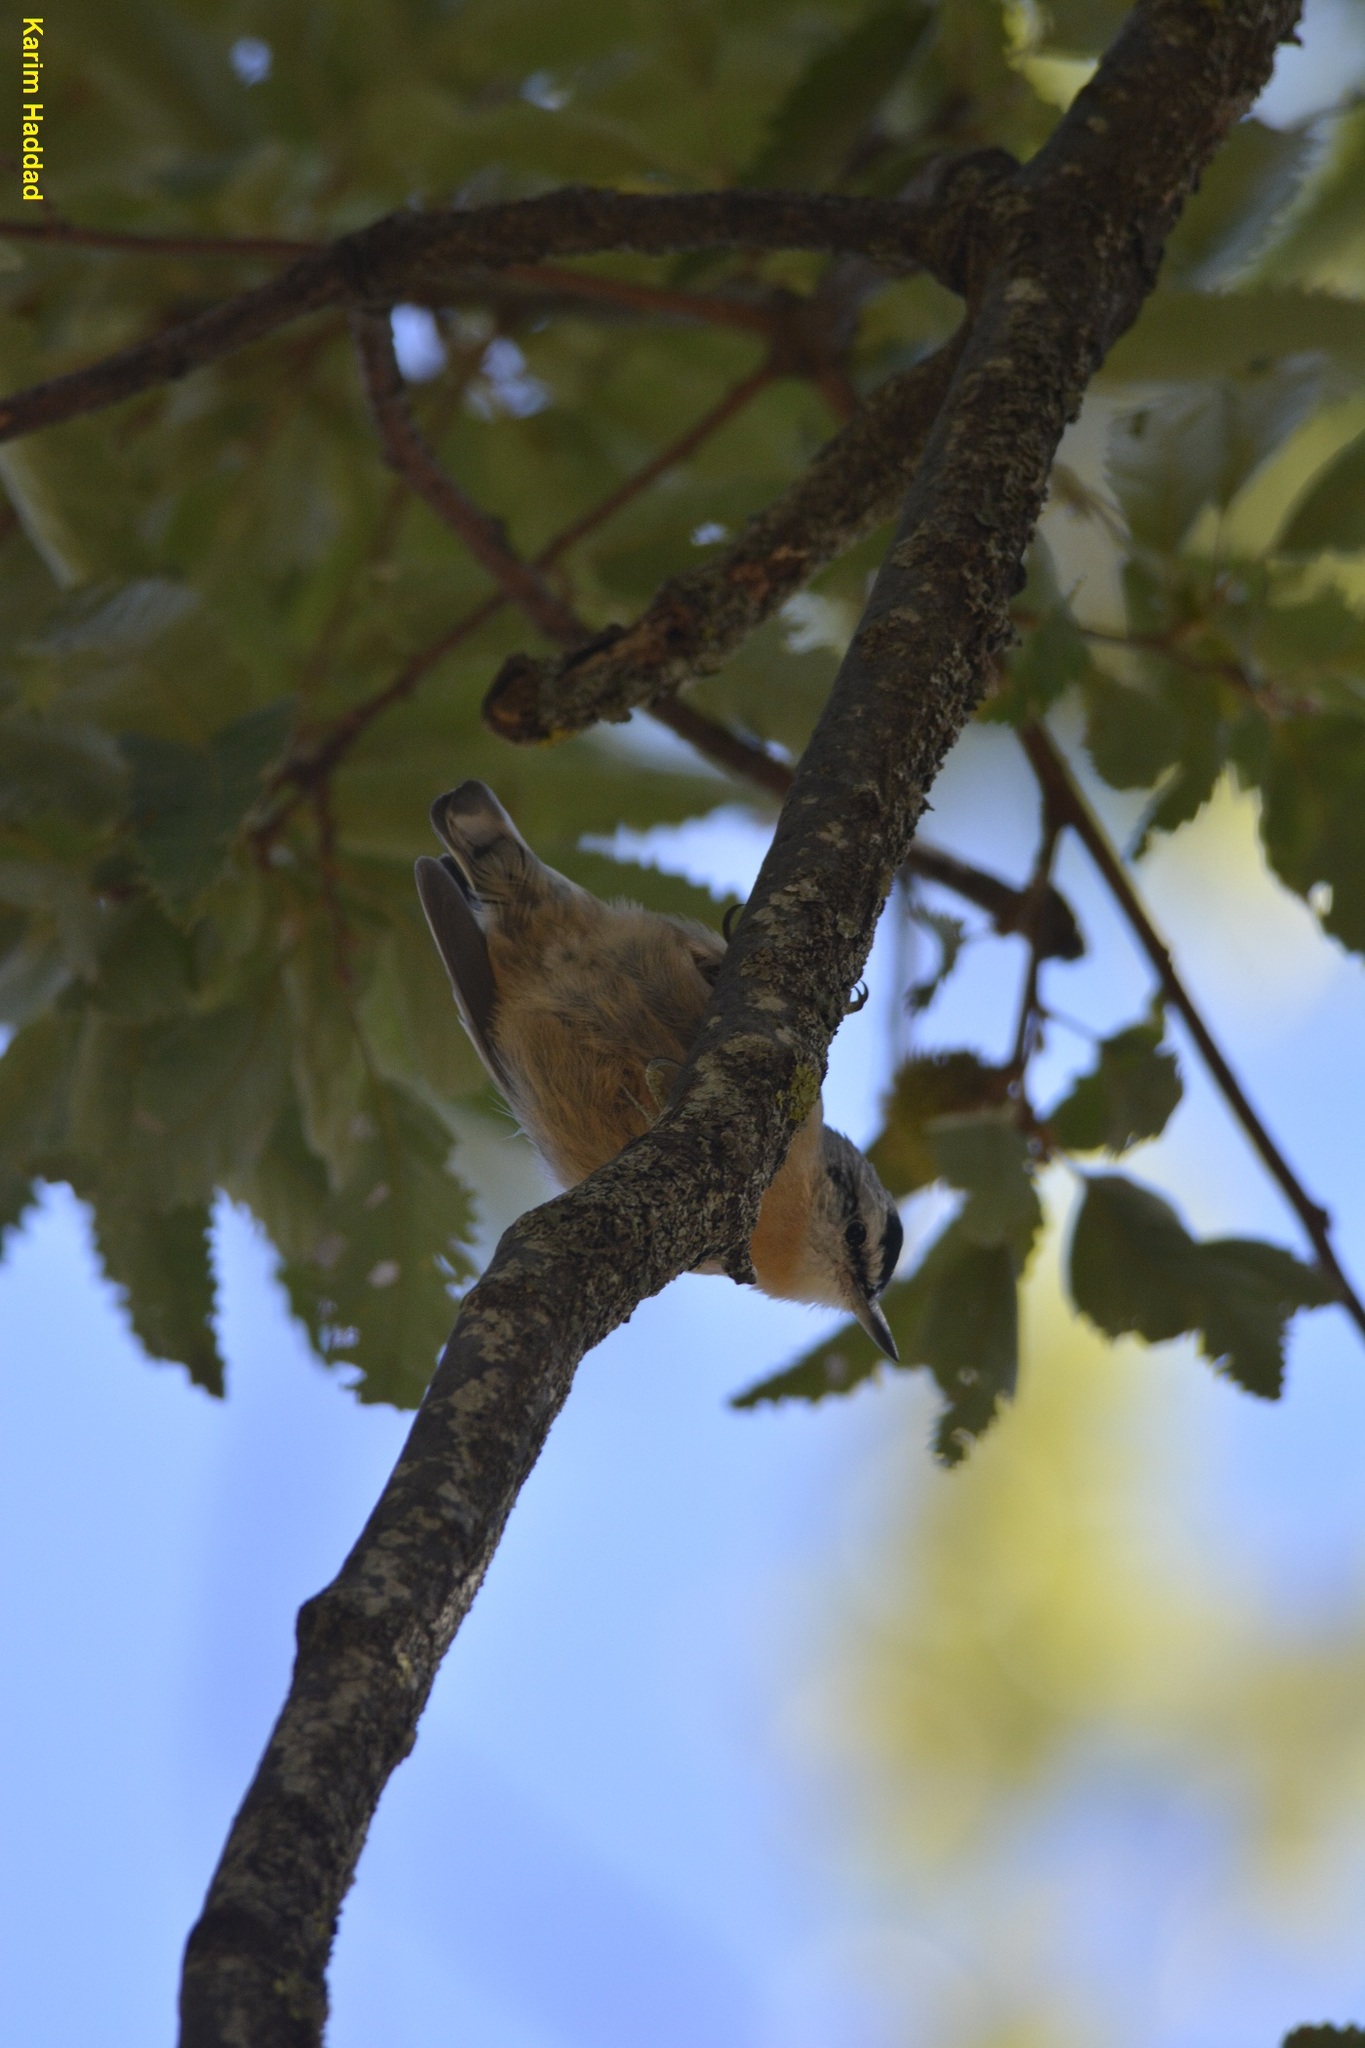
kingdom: Animalia
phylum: Chordata
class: Aves
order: Passeriformes
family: Sittidae
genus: Sitta
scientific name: Sitta ledanti
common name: Algerian nuthatch
